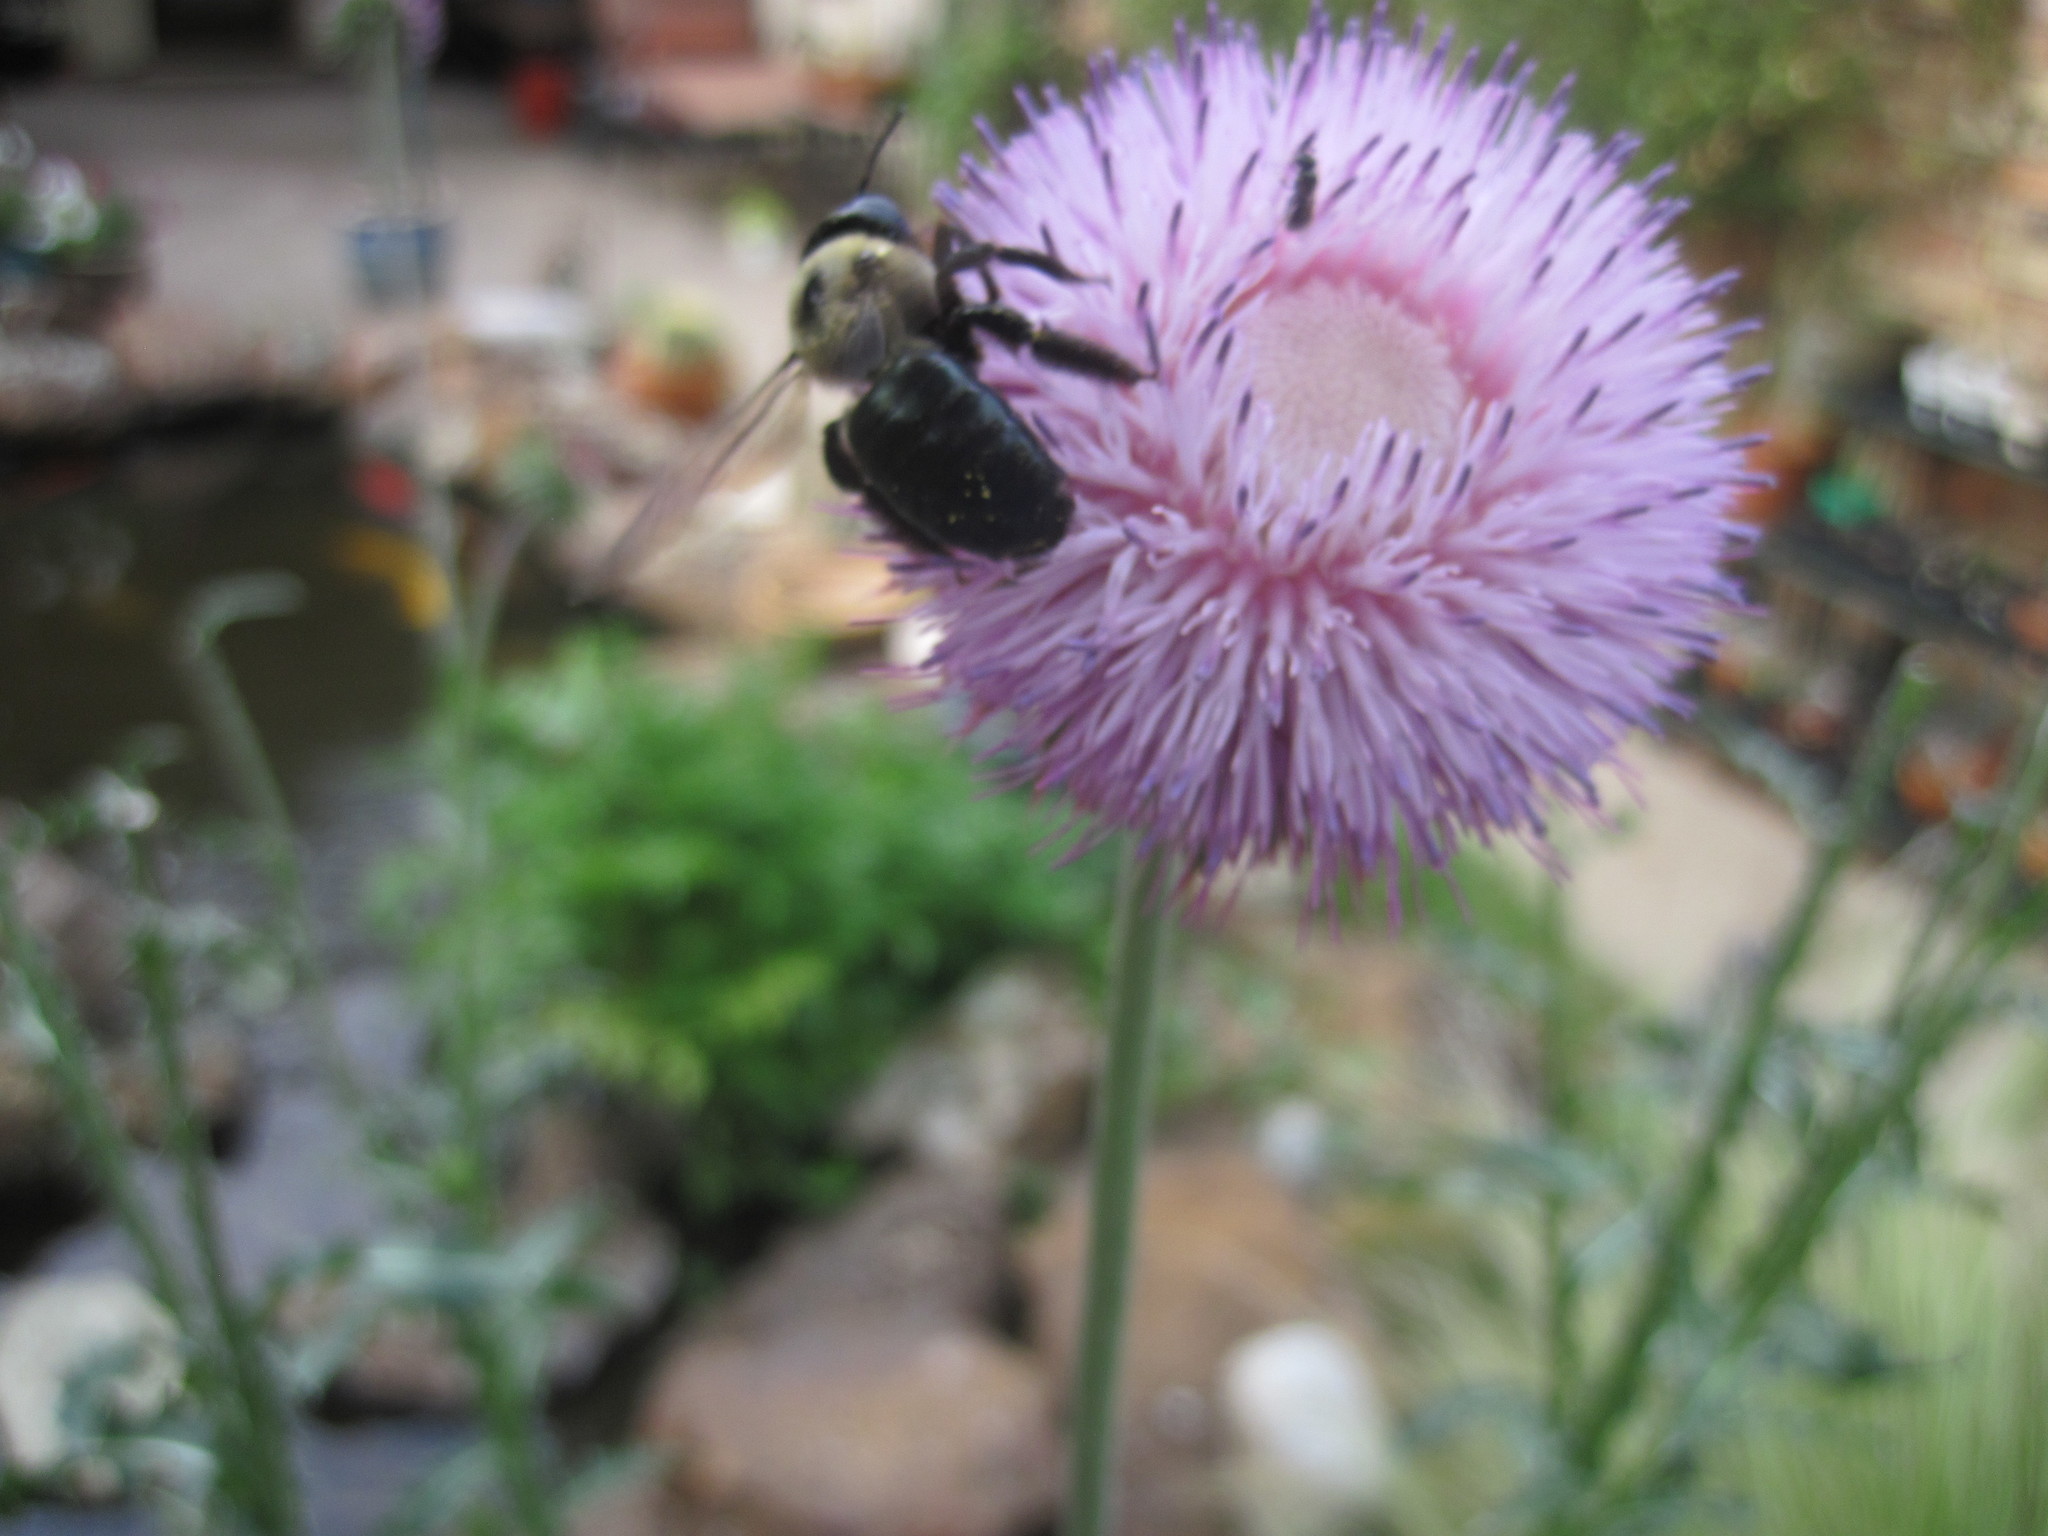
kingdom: Animalia
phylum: Arthropoda
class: Insecta
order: Hymenoptera
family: Apidae
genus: Xylocopa
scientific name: Xylocopa virginica
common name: Carpenter bee
